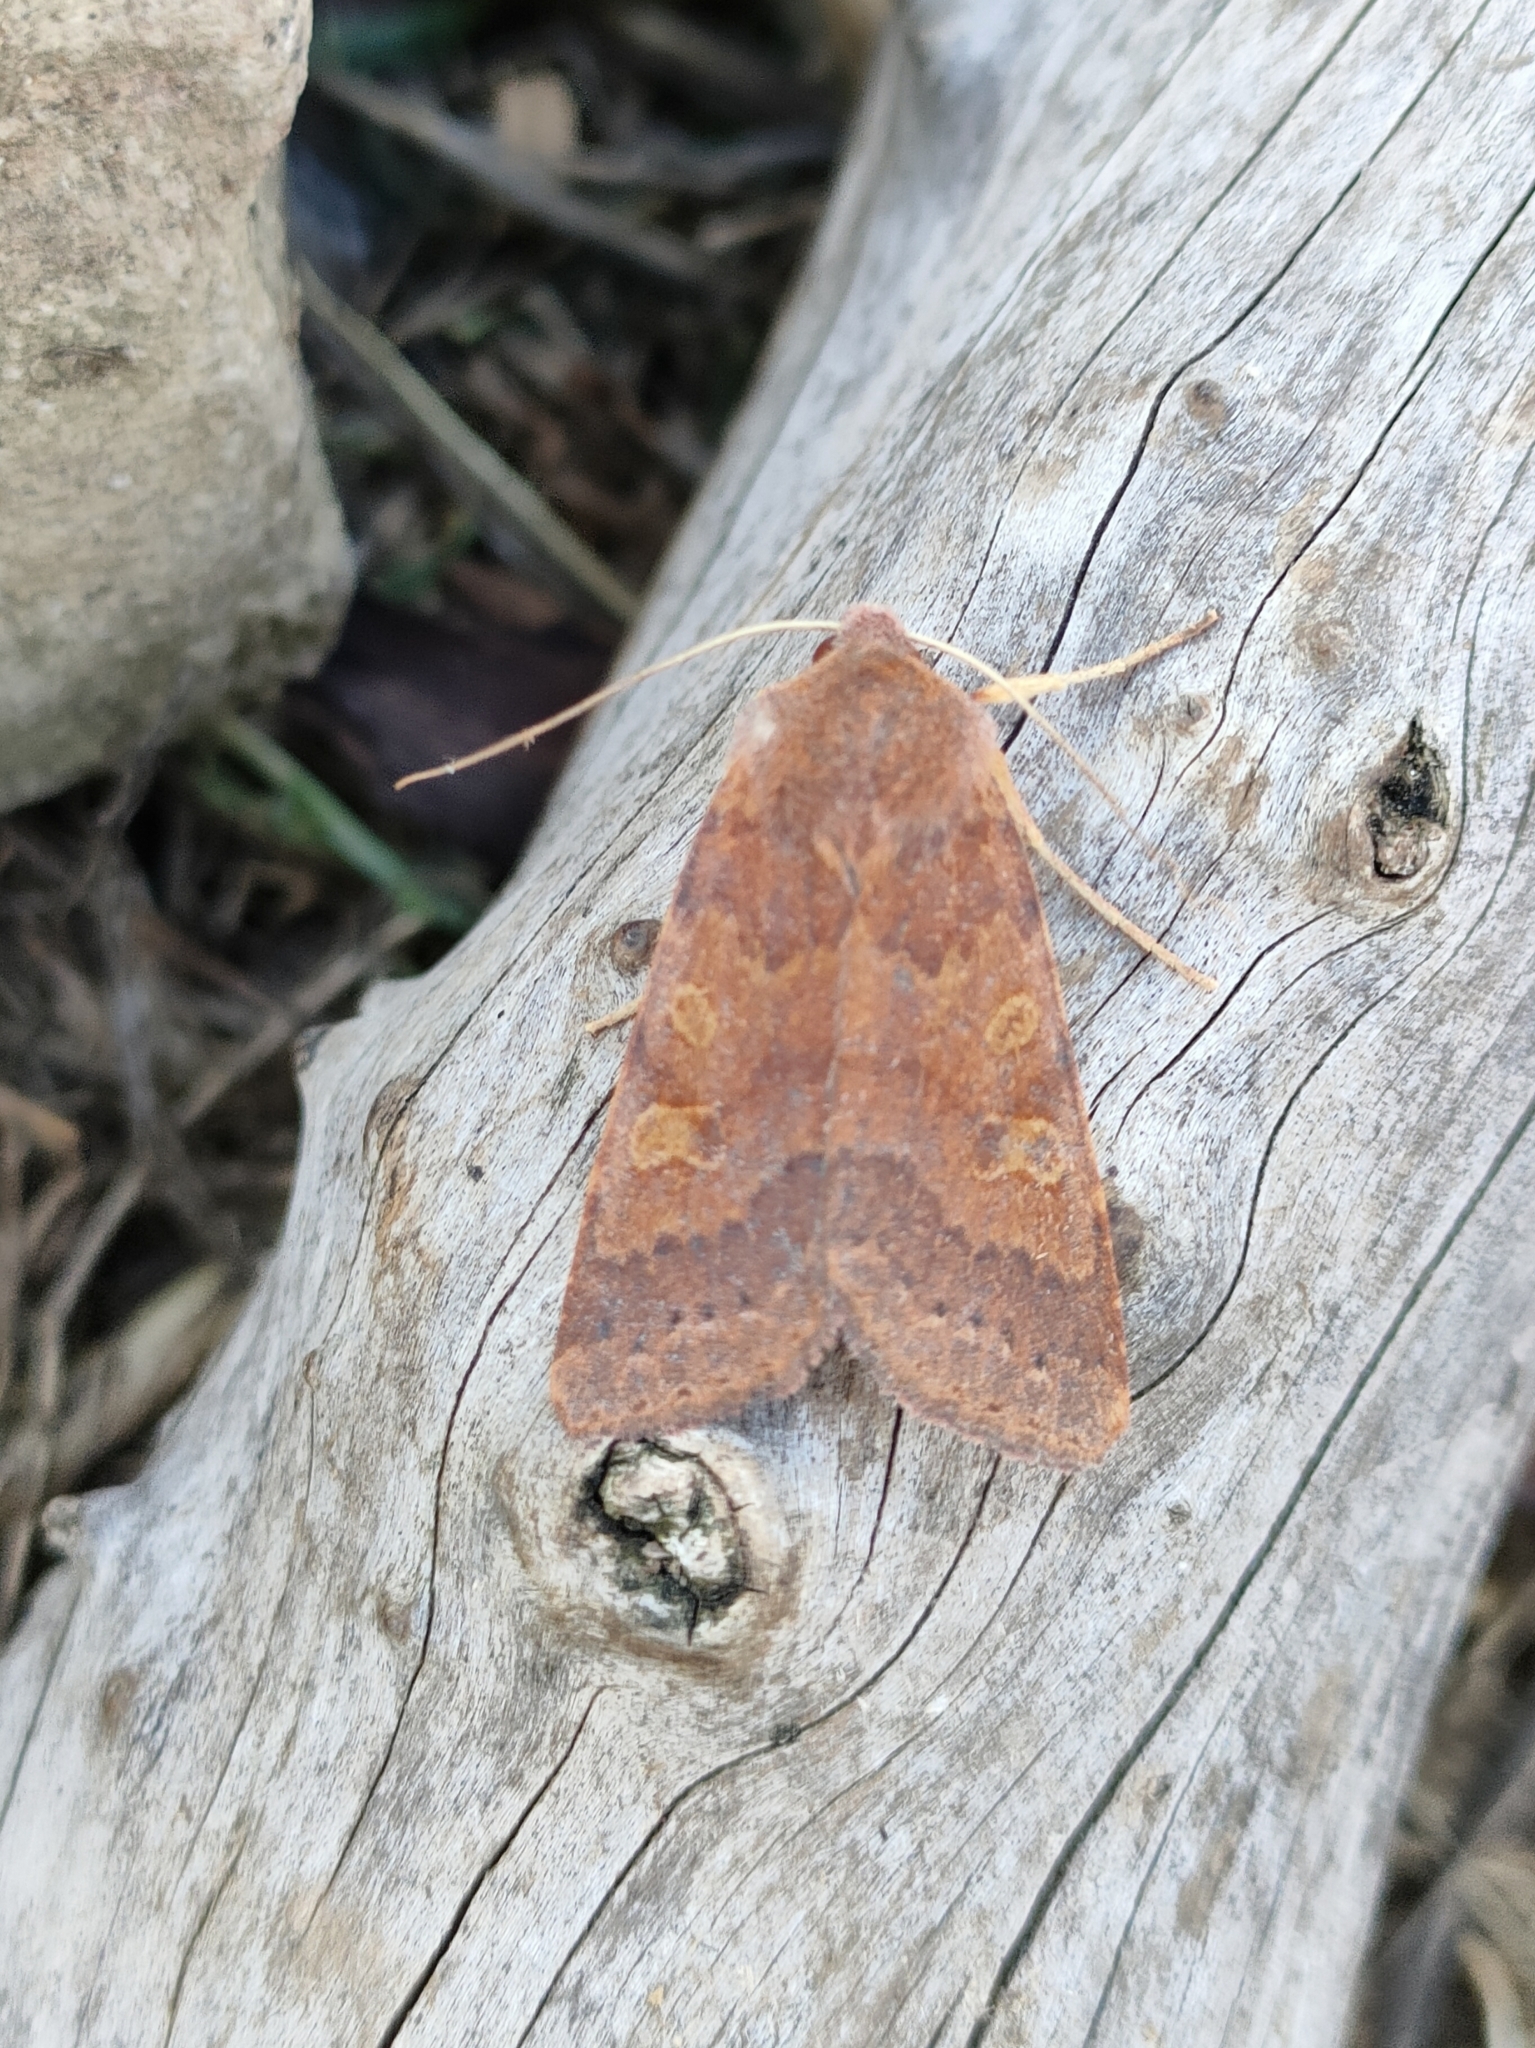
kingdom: Animalia
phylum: Arthropoda
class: Insecta
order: Lepidoptera
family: Noctuidae
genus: Agrochola
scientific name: Agrochola helvola
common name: Flounced chestnut
